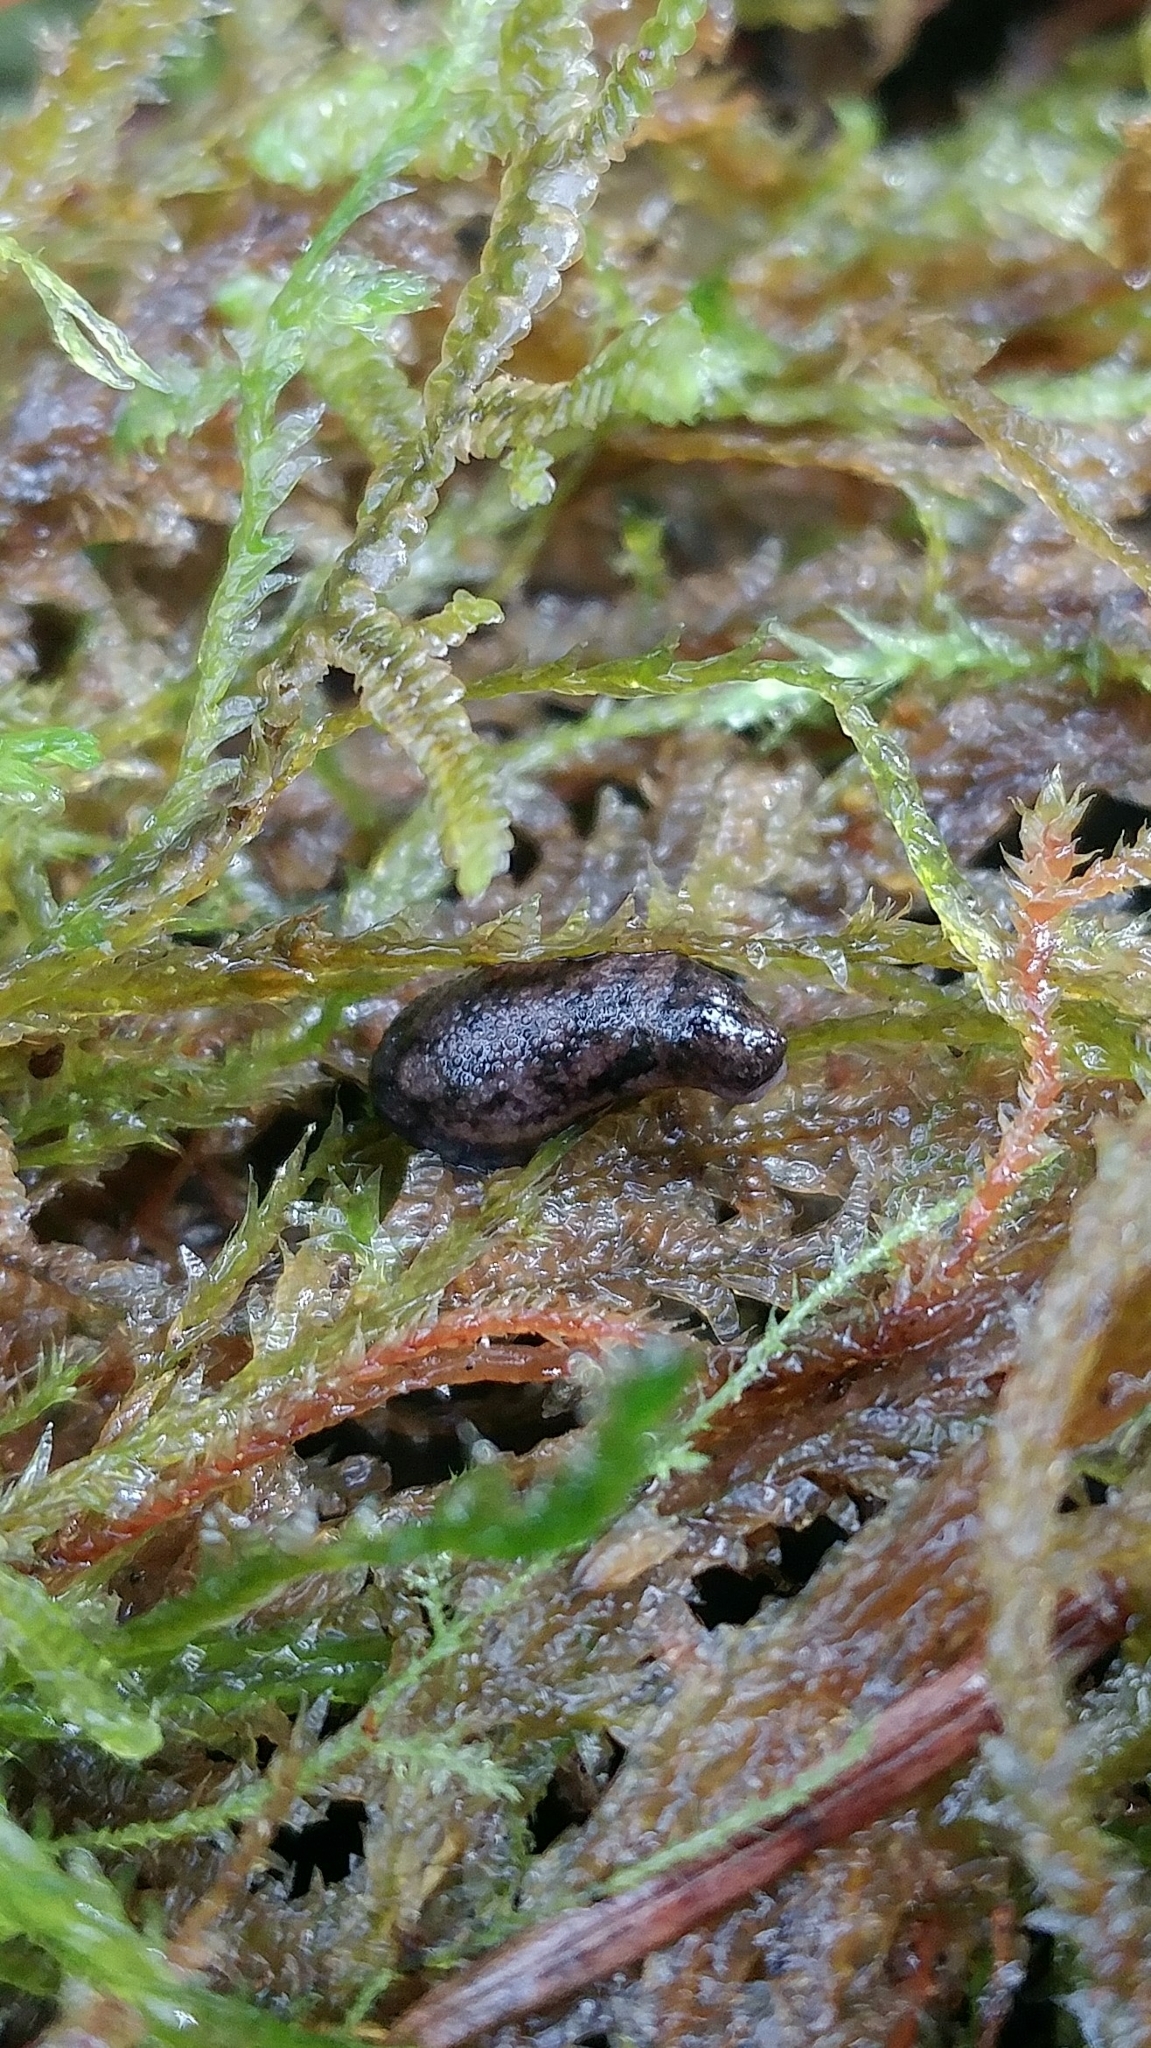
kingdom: Animalia
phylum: Mollusca
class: Gastropoda
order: Stylommatophora
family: Ariolimacidae
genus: Prophysaon
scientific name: Prophysaon dubium
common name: Papillose taildropper
